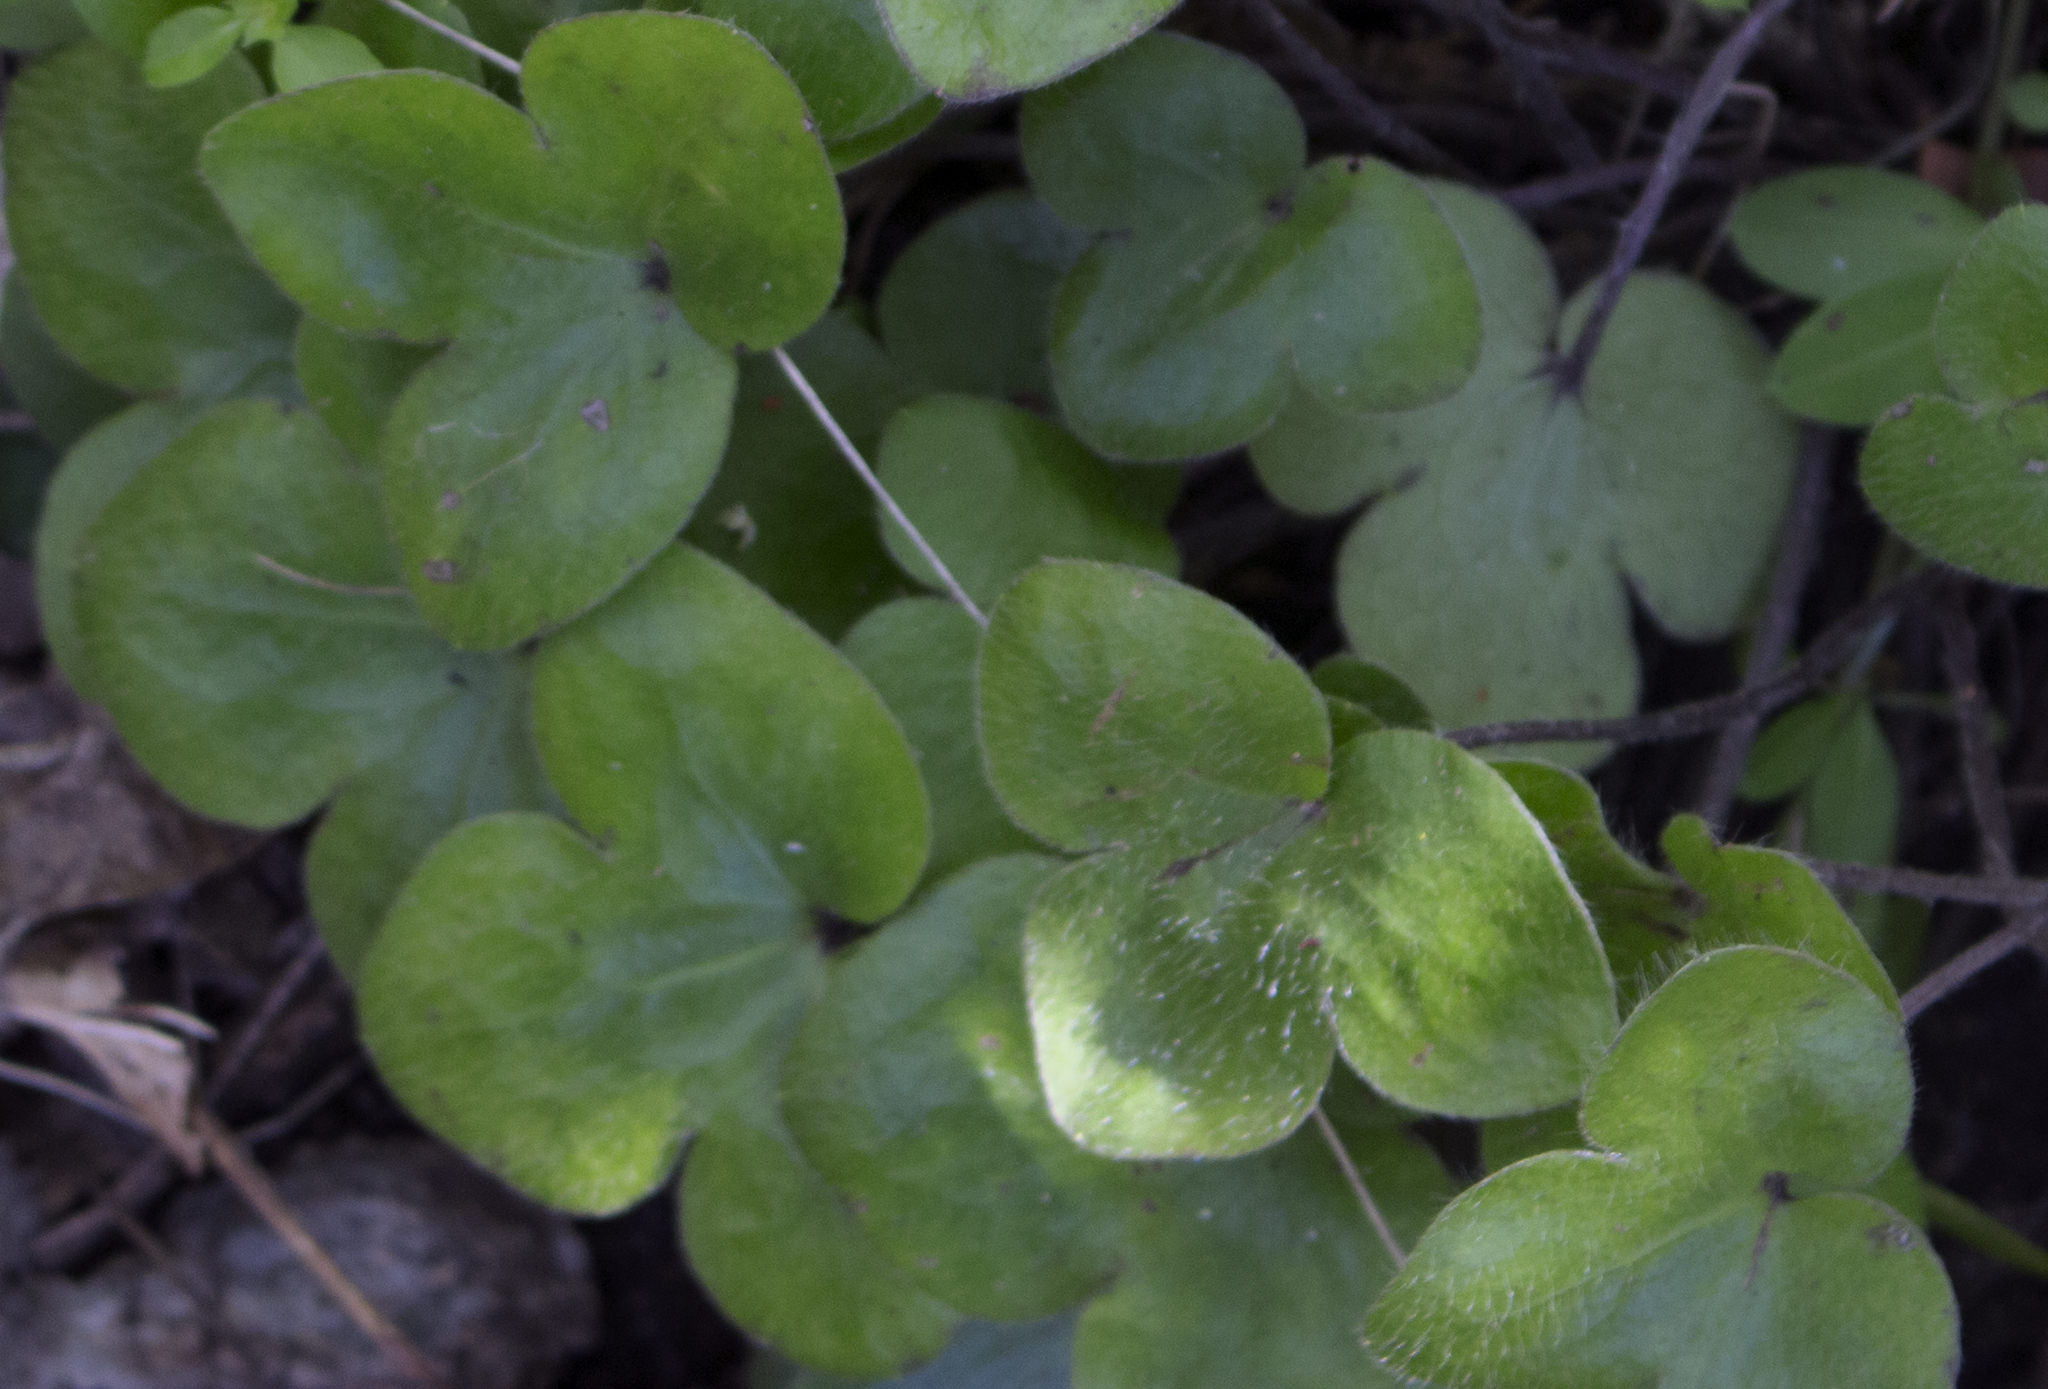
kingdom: Plantae
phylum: Tracheophyta
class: Magnoliopsida
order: Ranunculales
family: Ranunculaceae
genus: Hepatica
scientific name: Hepatica americana
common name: American hepatica
